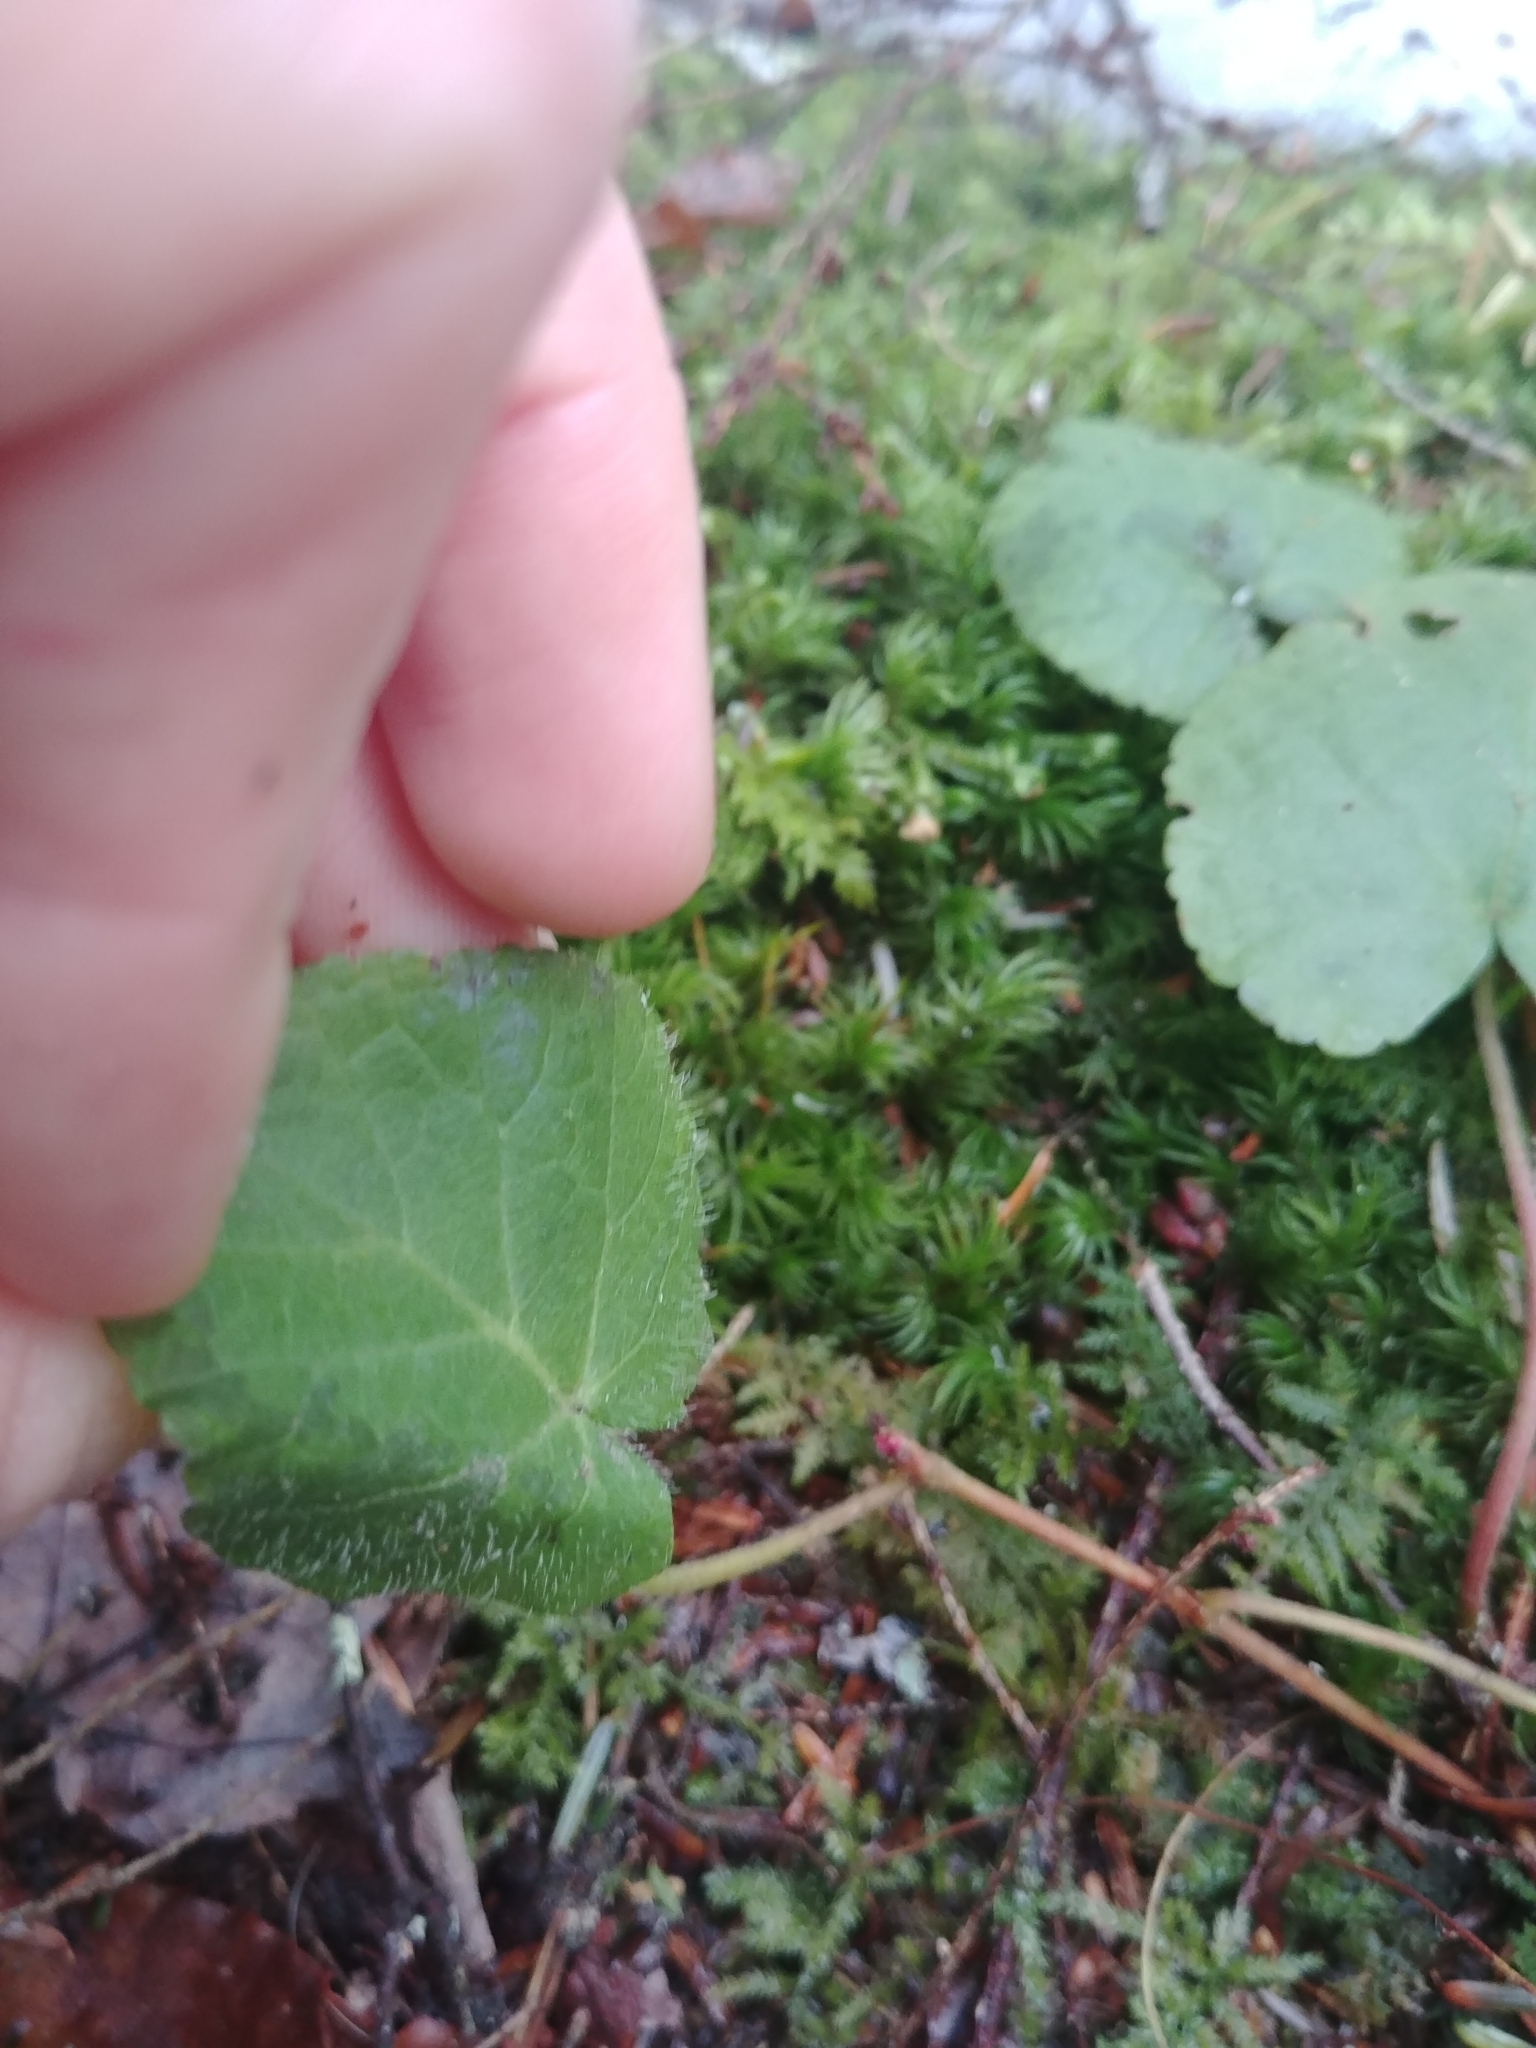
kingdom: Plantae
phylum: Tracheophyta
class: Magnoliopsida
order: Rosales
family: Rosaceae
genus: Dalibarda
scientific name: Dalibarda repens
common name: Dewdrop
